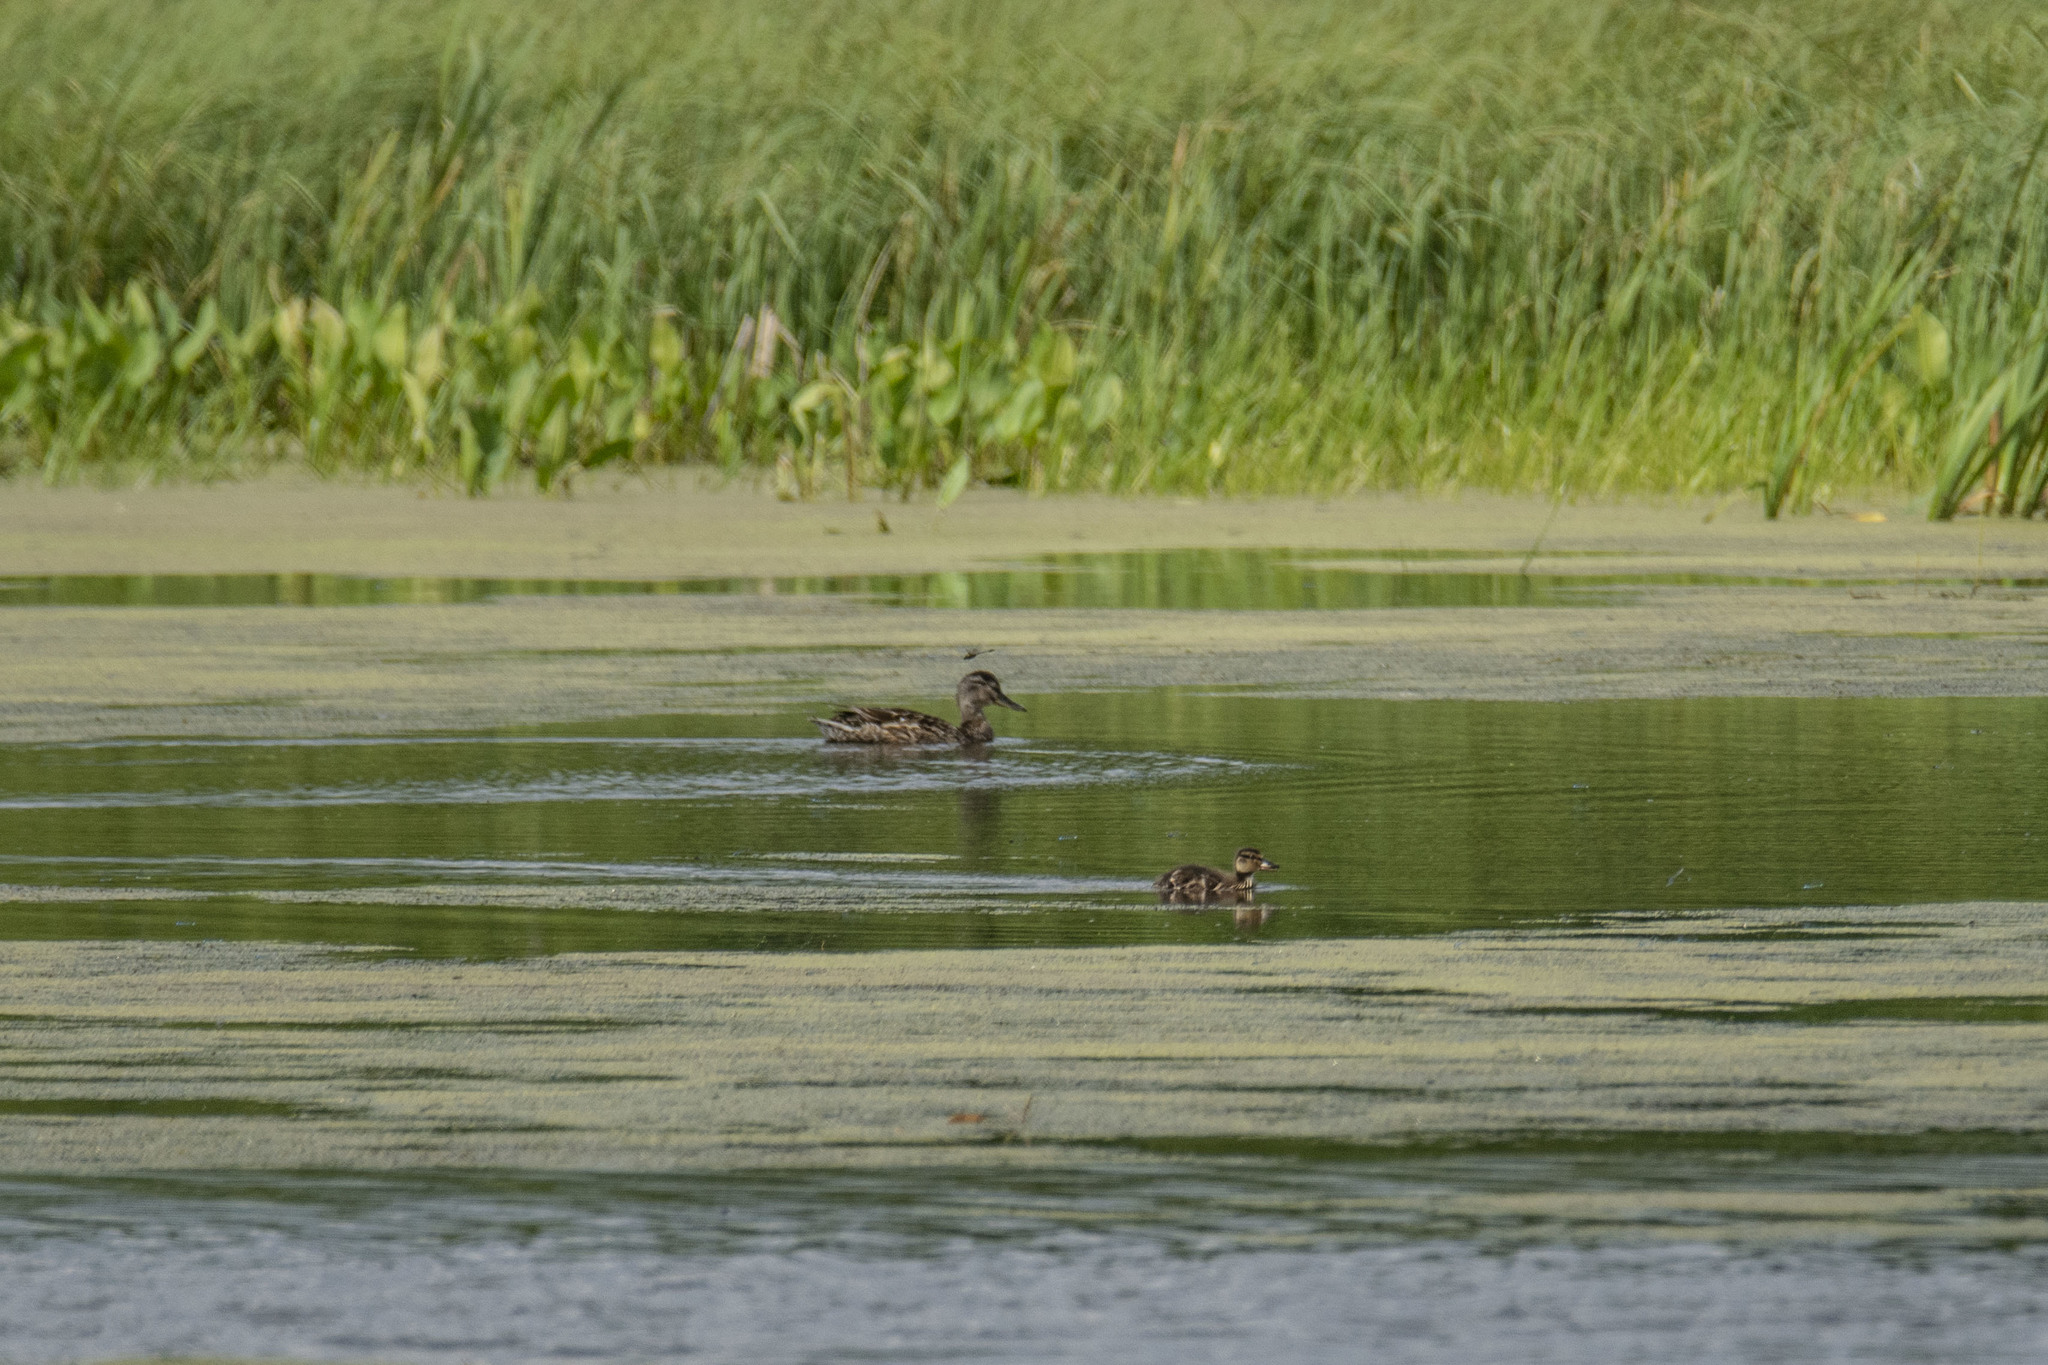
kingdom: Animalia
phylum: Chordata
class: Aves
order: Anseriformes
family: Anatidae
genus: Mareca
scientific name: Mareca strepera
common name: Gadwall
